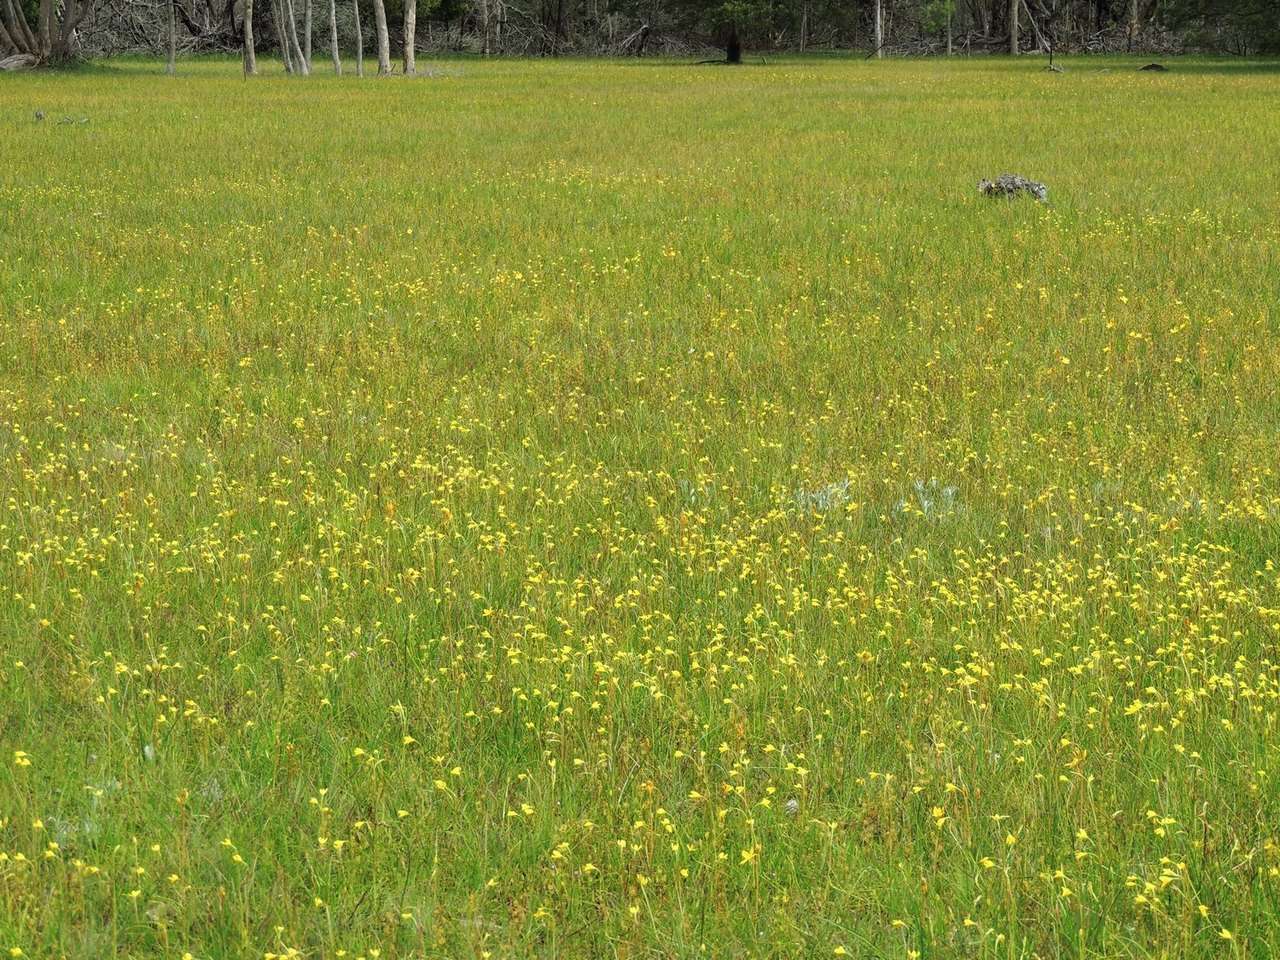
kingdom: Plantae
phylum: Tracheophyta
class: Liliopsida
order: Asparagales
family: Orchidaceae
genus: Diuris
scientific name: Diuris chryseopsis
